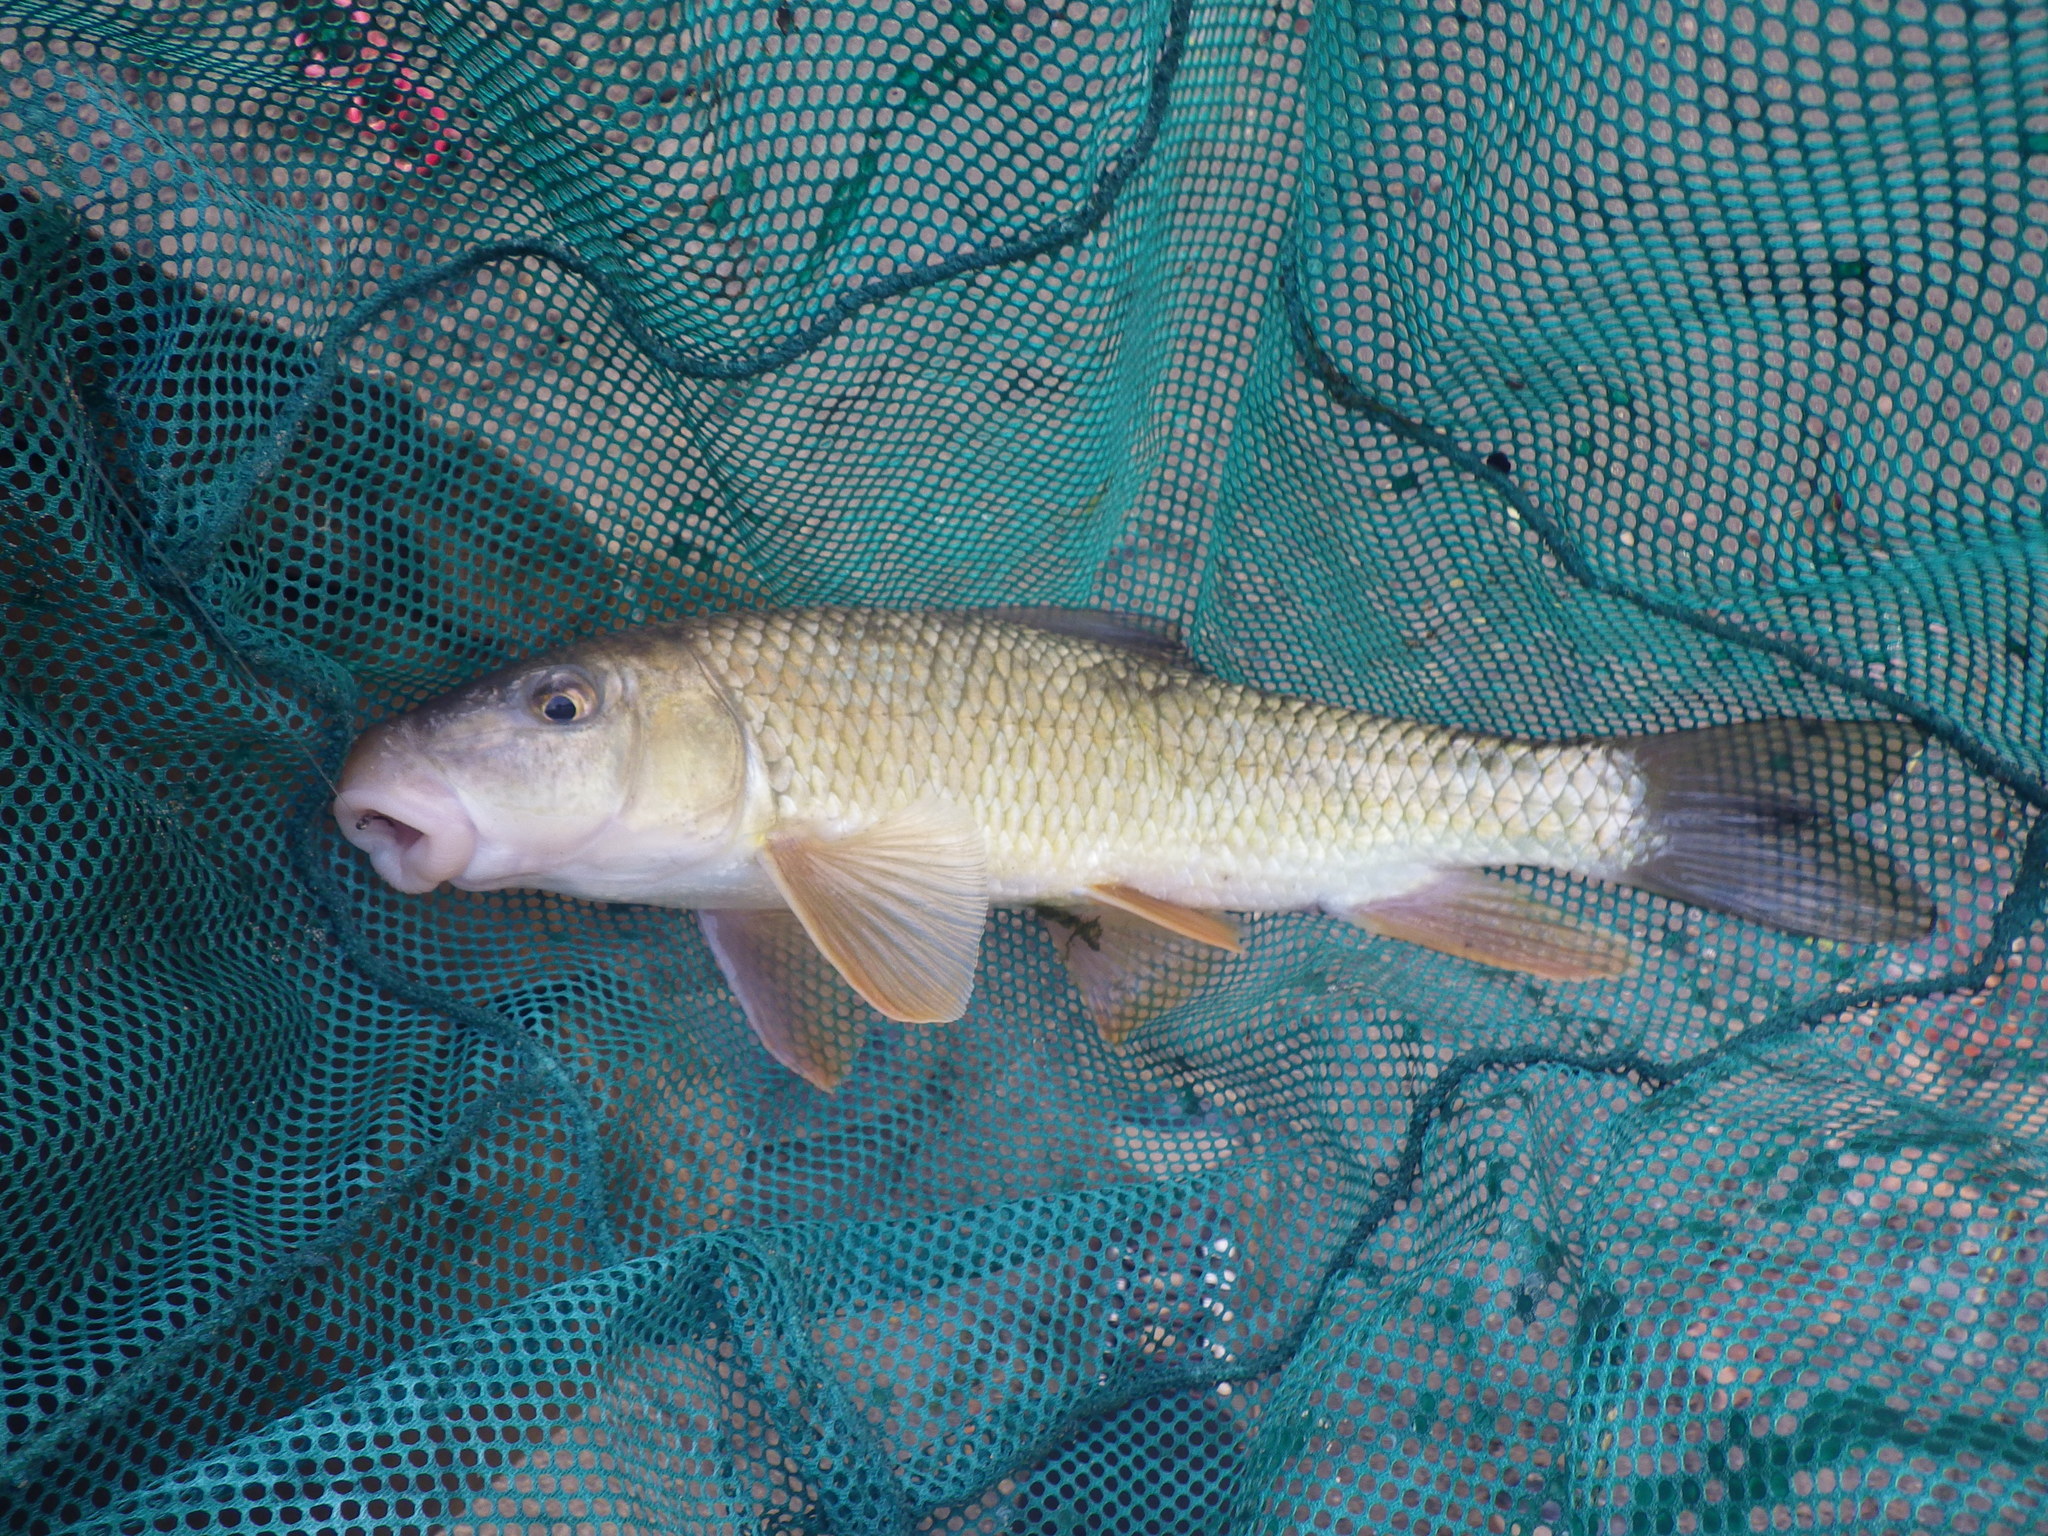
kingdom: Animalia
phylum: Chordata
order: Cypriniformes
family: Catostomidae
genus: Moxostoma
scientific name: Moxostoma erythrurum
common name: Golden redhorse
